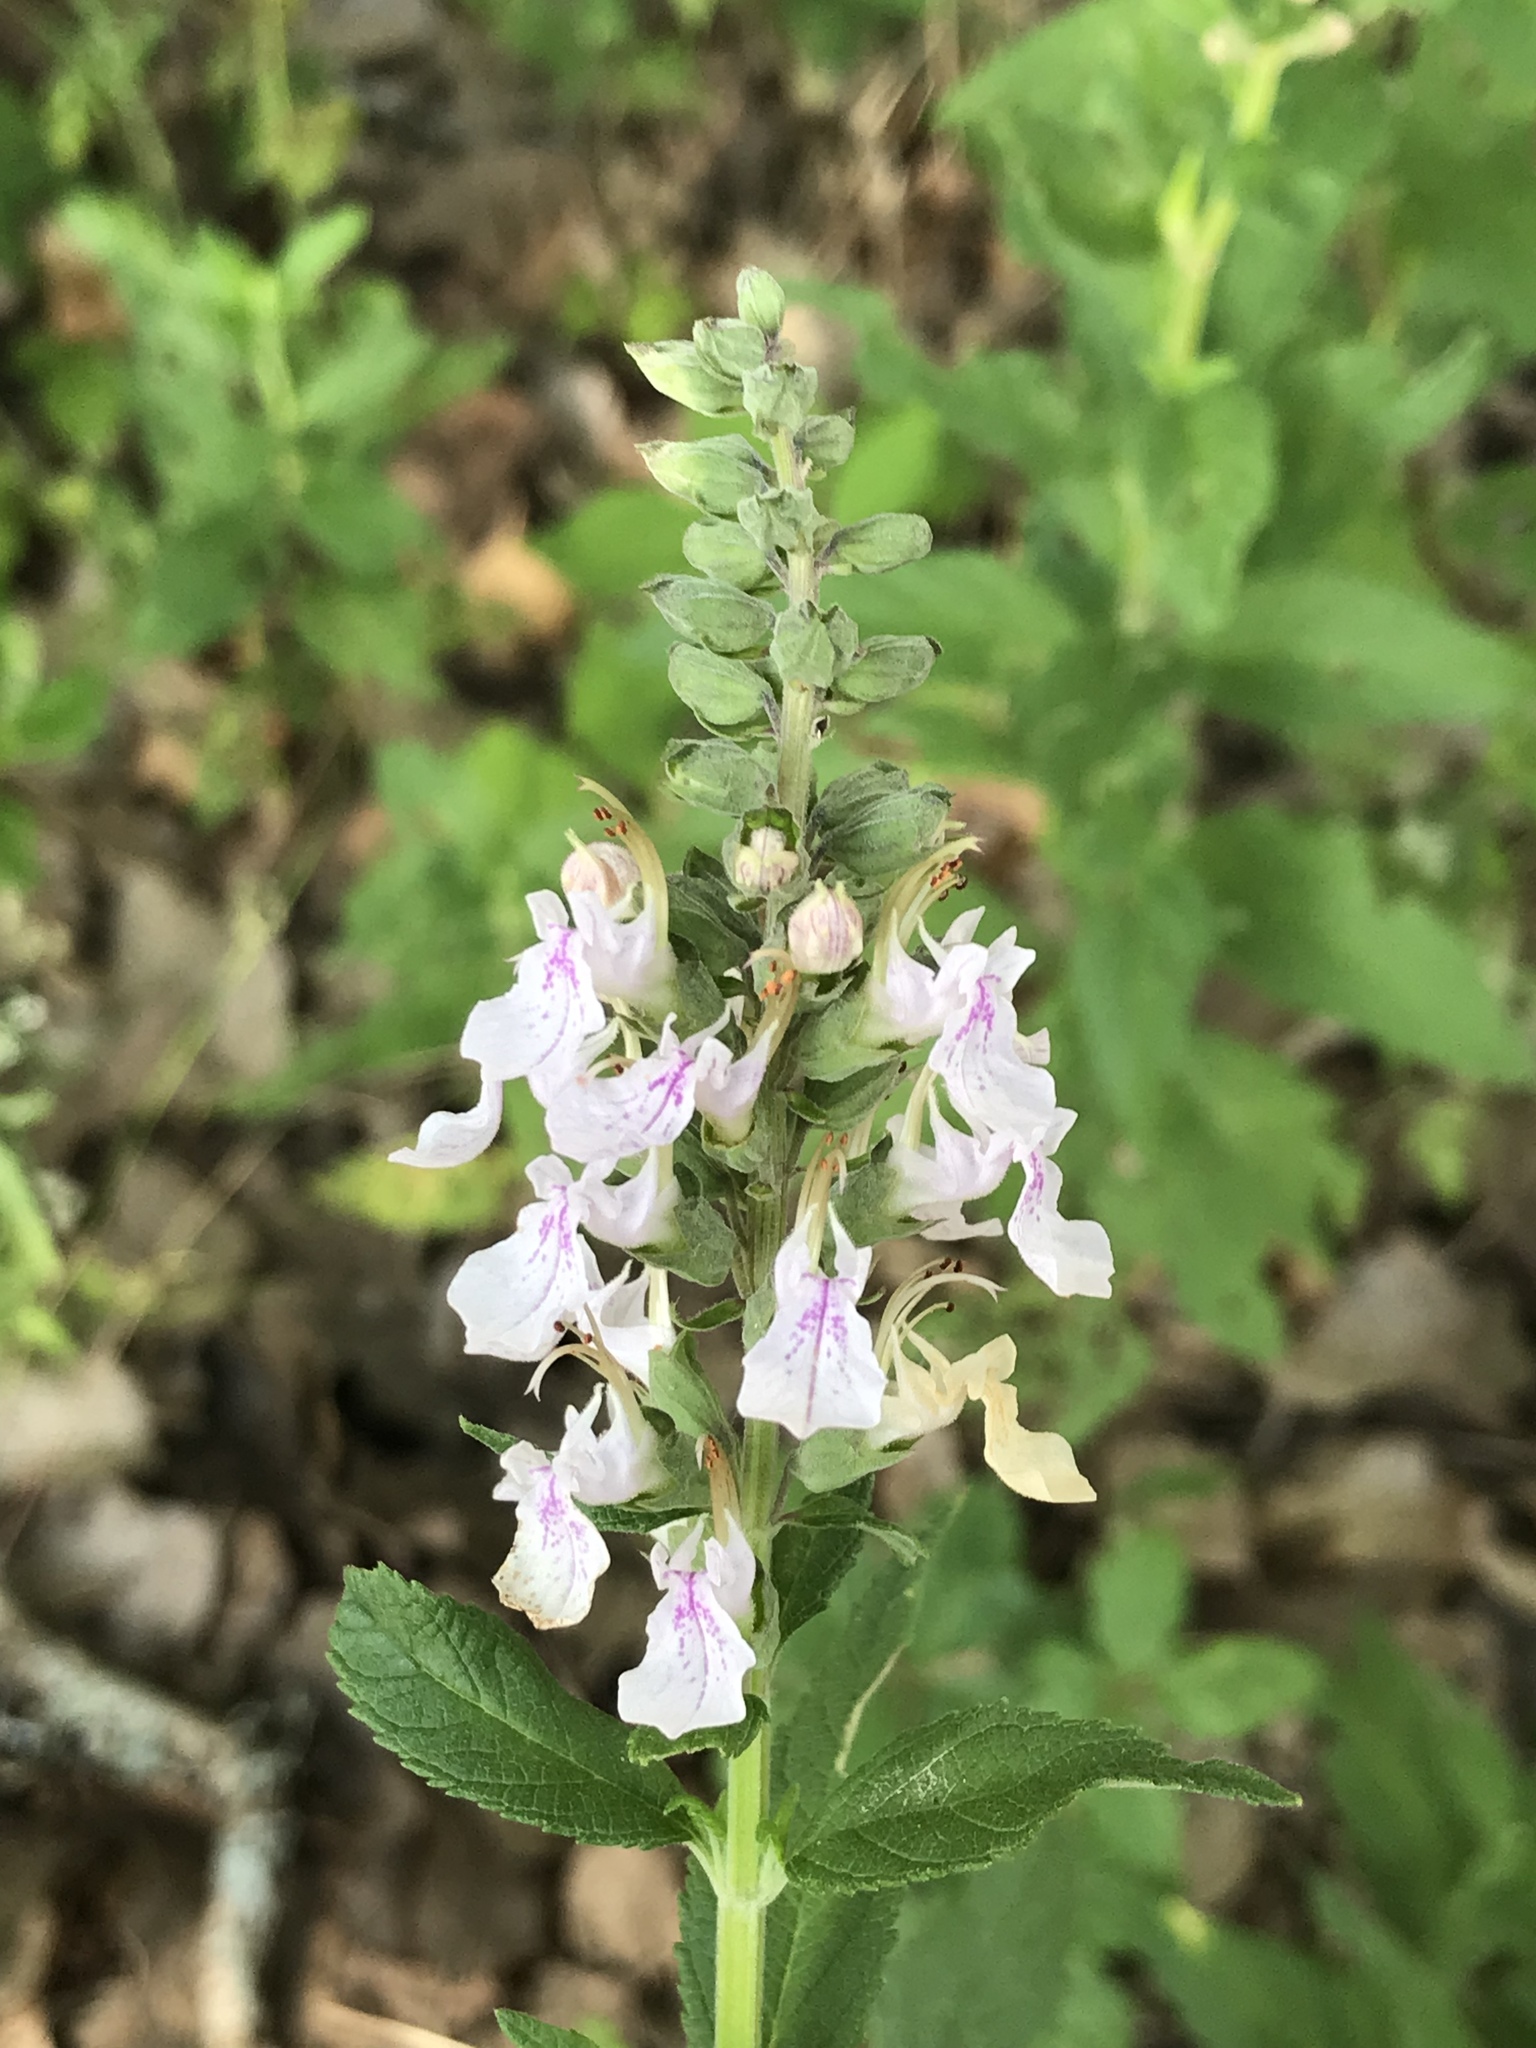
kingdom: Plantae
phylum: Tracheophyta
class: Magnoliopsida
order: Lamiales
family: Lamiaceae
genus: Teucrium
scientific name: Teucrium canadense
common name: American germander
